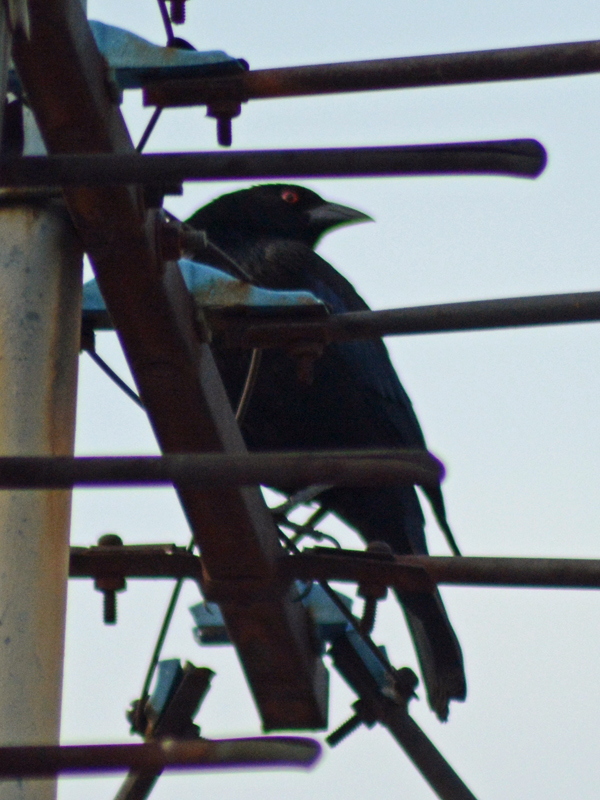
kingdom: Animalia
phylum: Chordata
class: Aves
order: Passeriformes
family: Icteridae
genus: Molothrus
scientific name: Molothrus aeneus
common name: Bronzed cowbird
